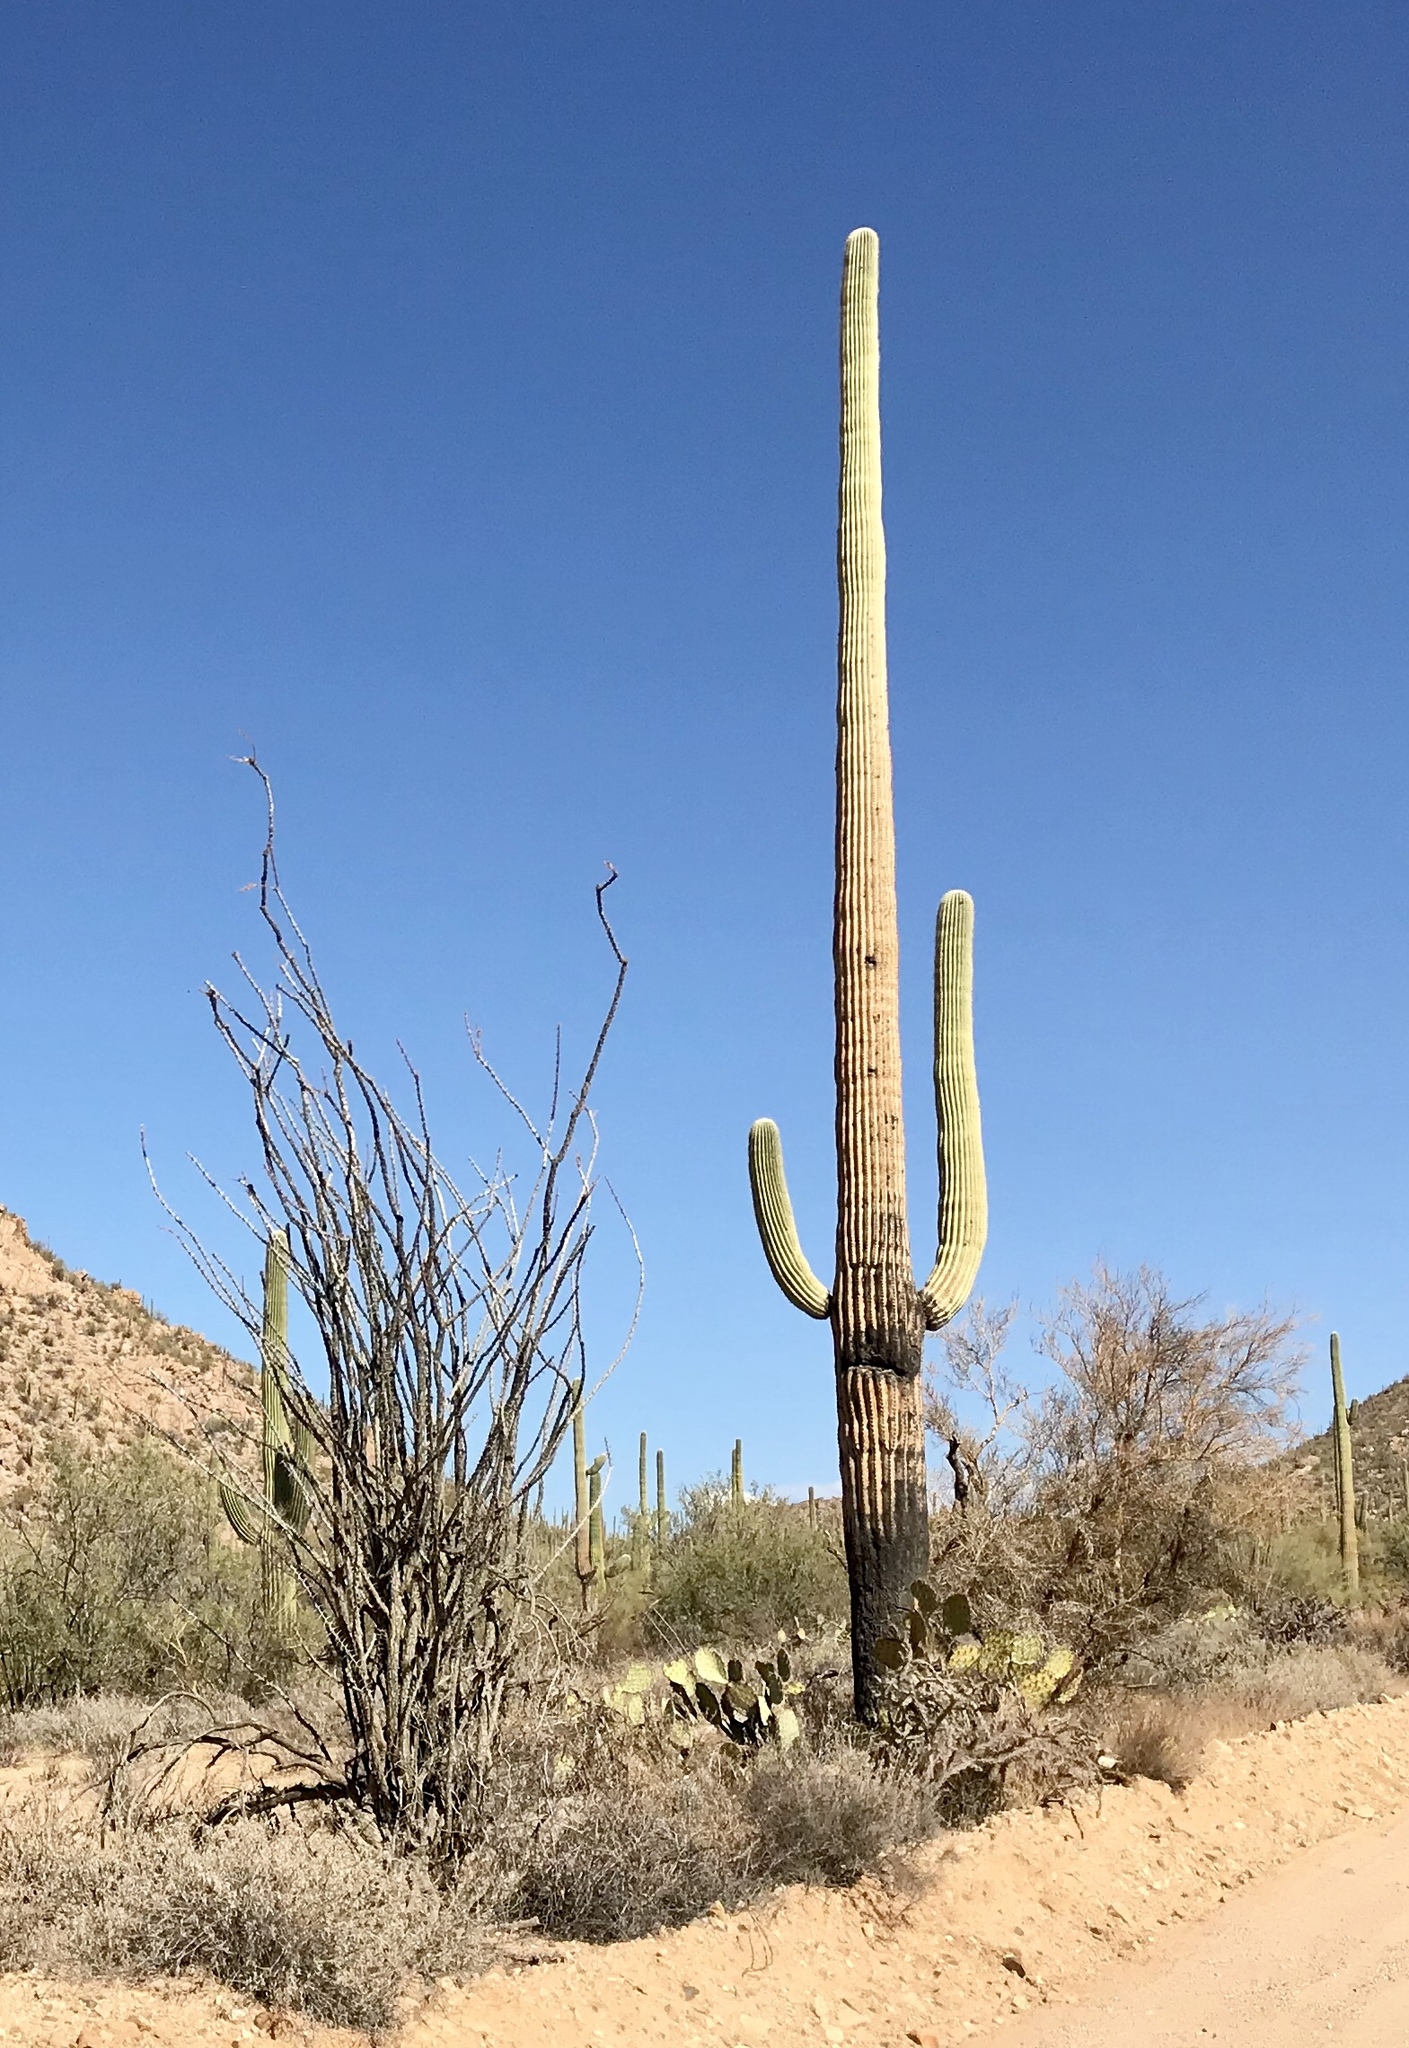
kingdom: Plantae
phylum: Tracheophyta
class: Magnoliopsida
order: Caryophyllales
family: Cactaceae
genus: Carnegiea
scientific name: Carnegiea gigantea
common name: Saguaro
